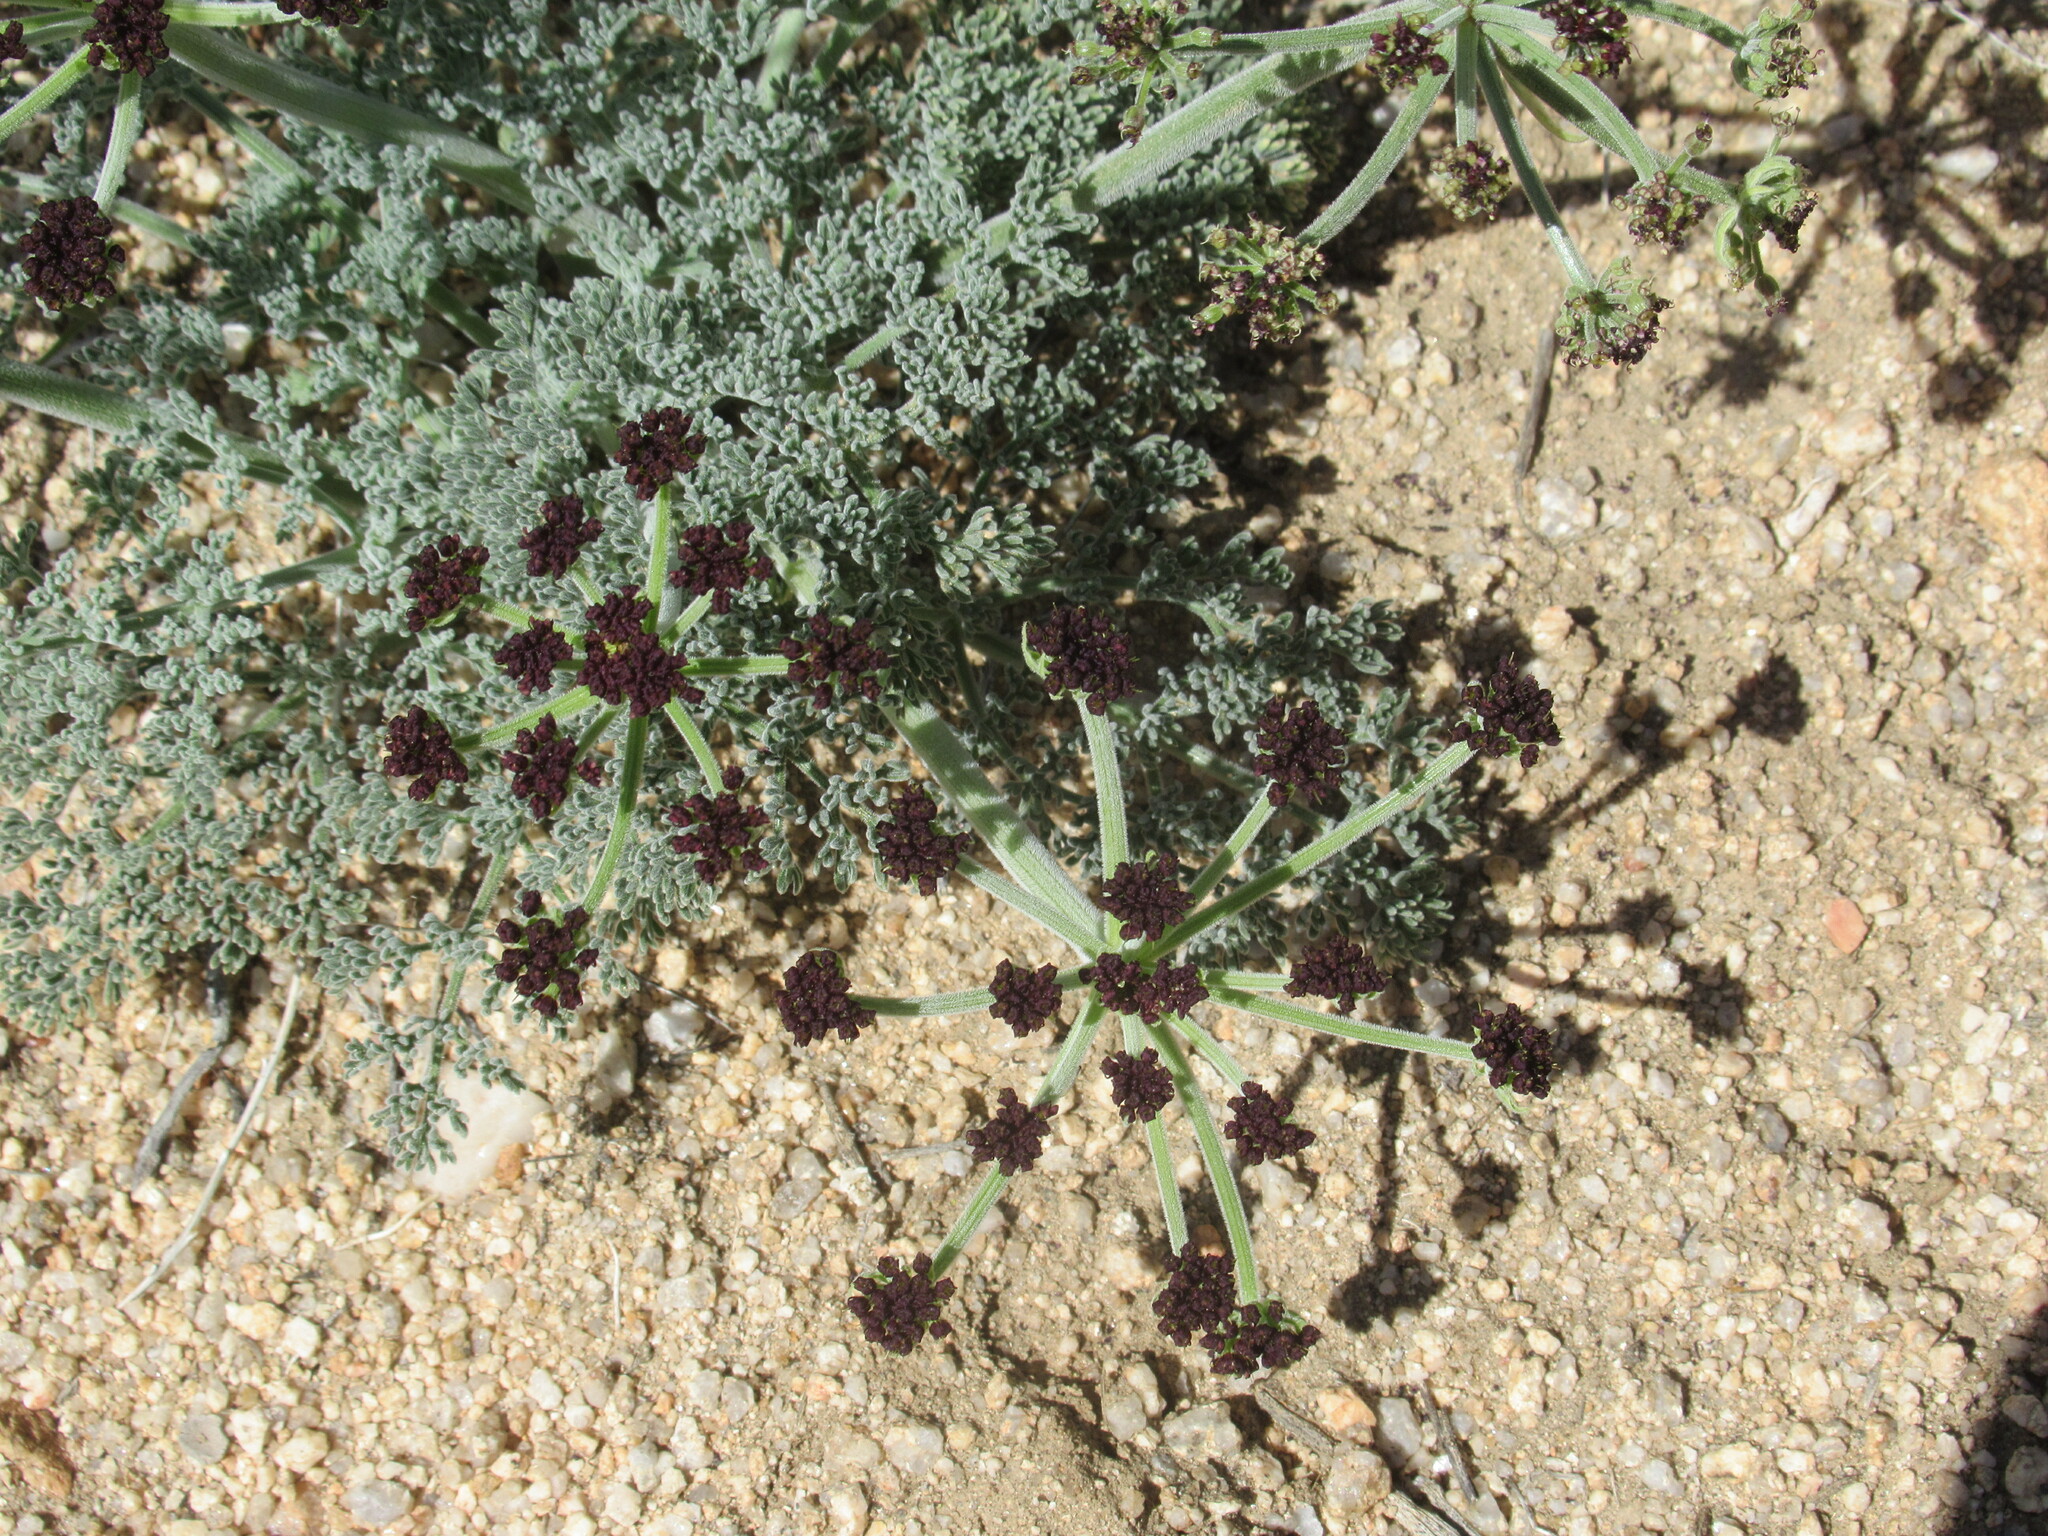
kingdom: Plantae
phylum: Tracheophyta
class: Magnoliopsida
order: Apiales
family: Apiaceae
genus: Lomatium
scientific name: Lomatium mohavense
